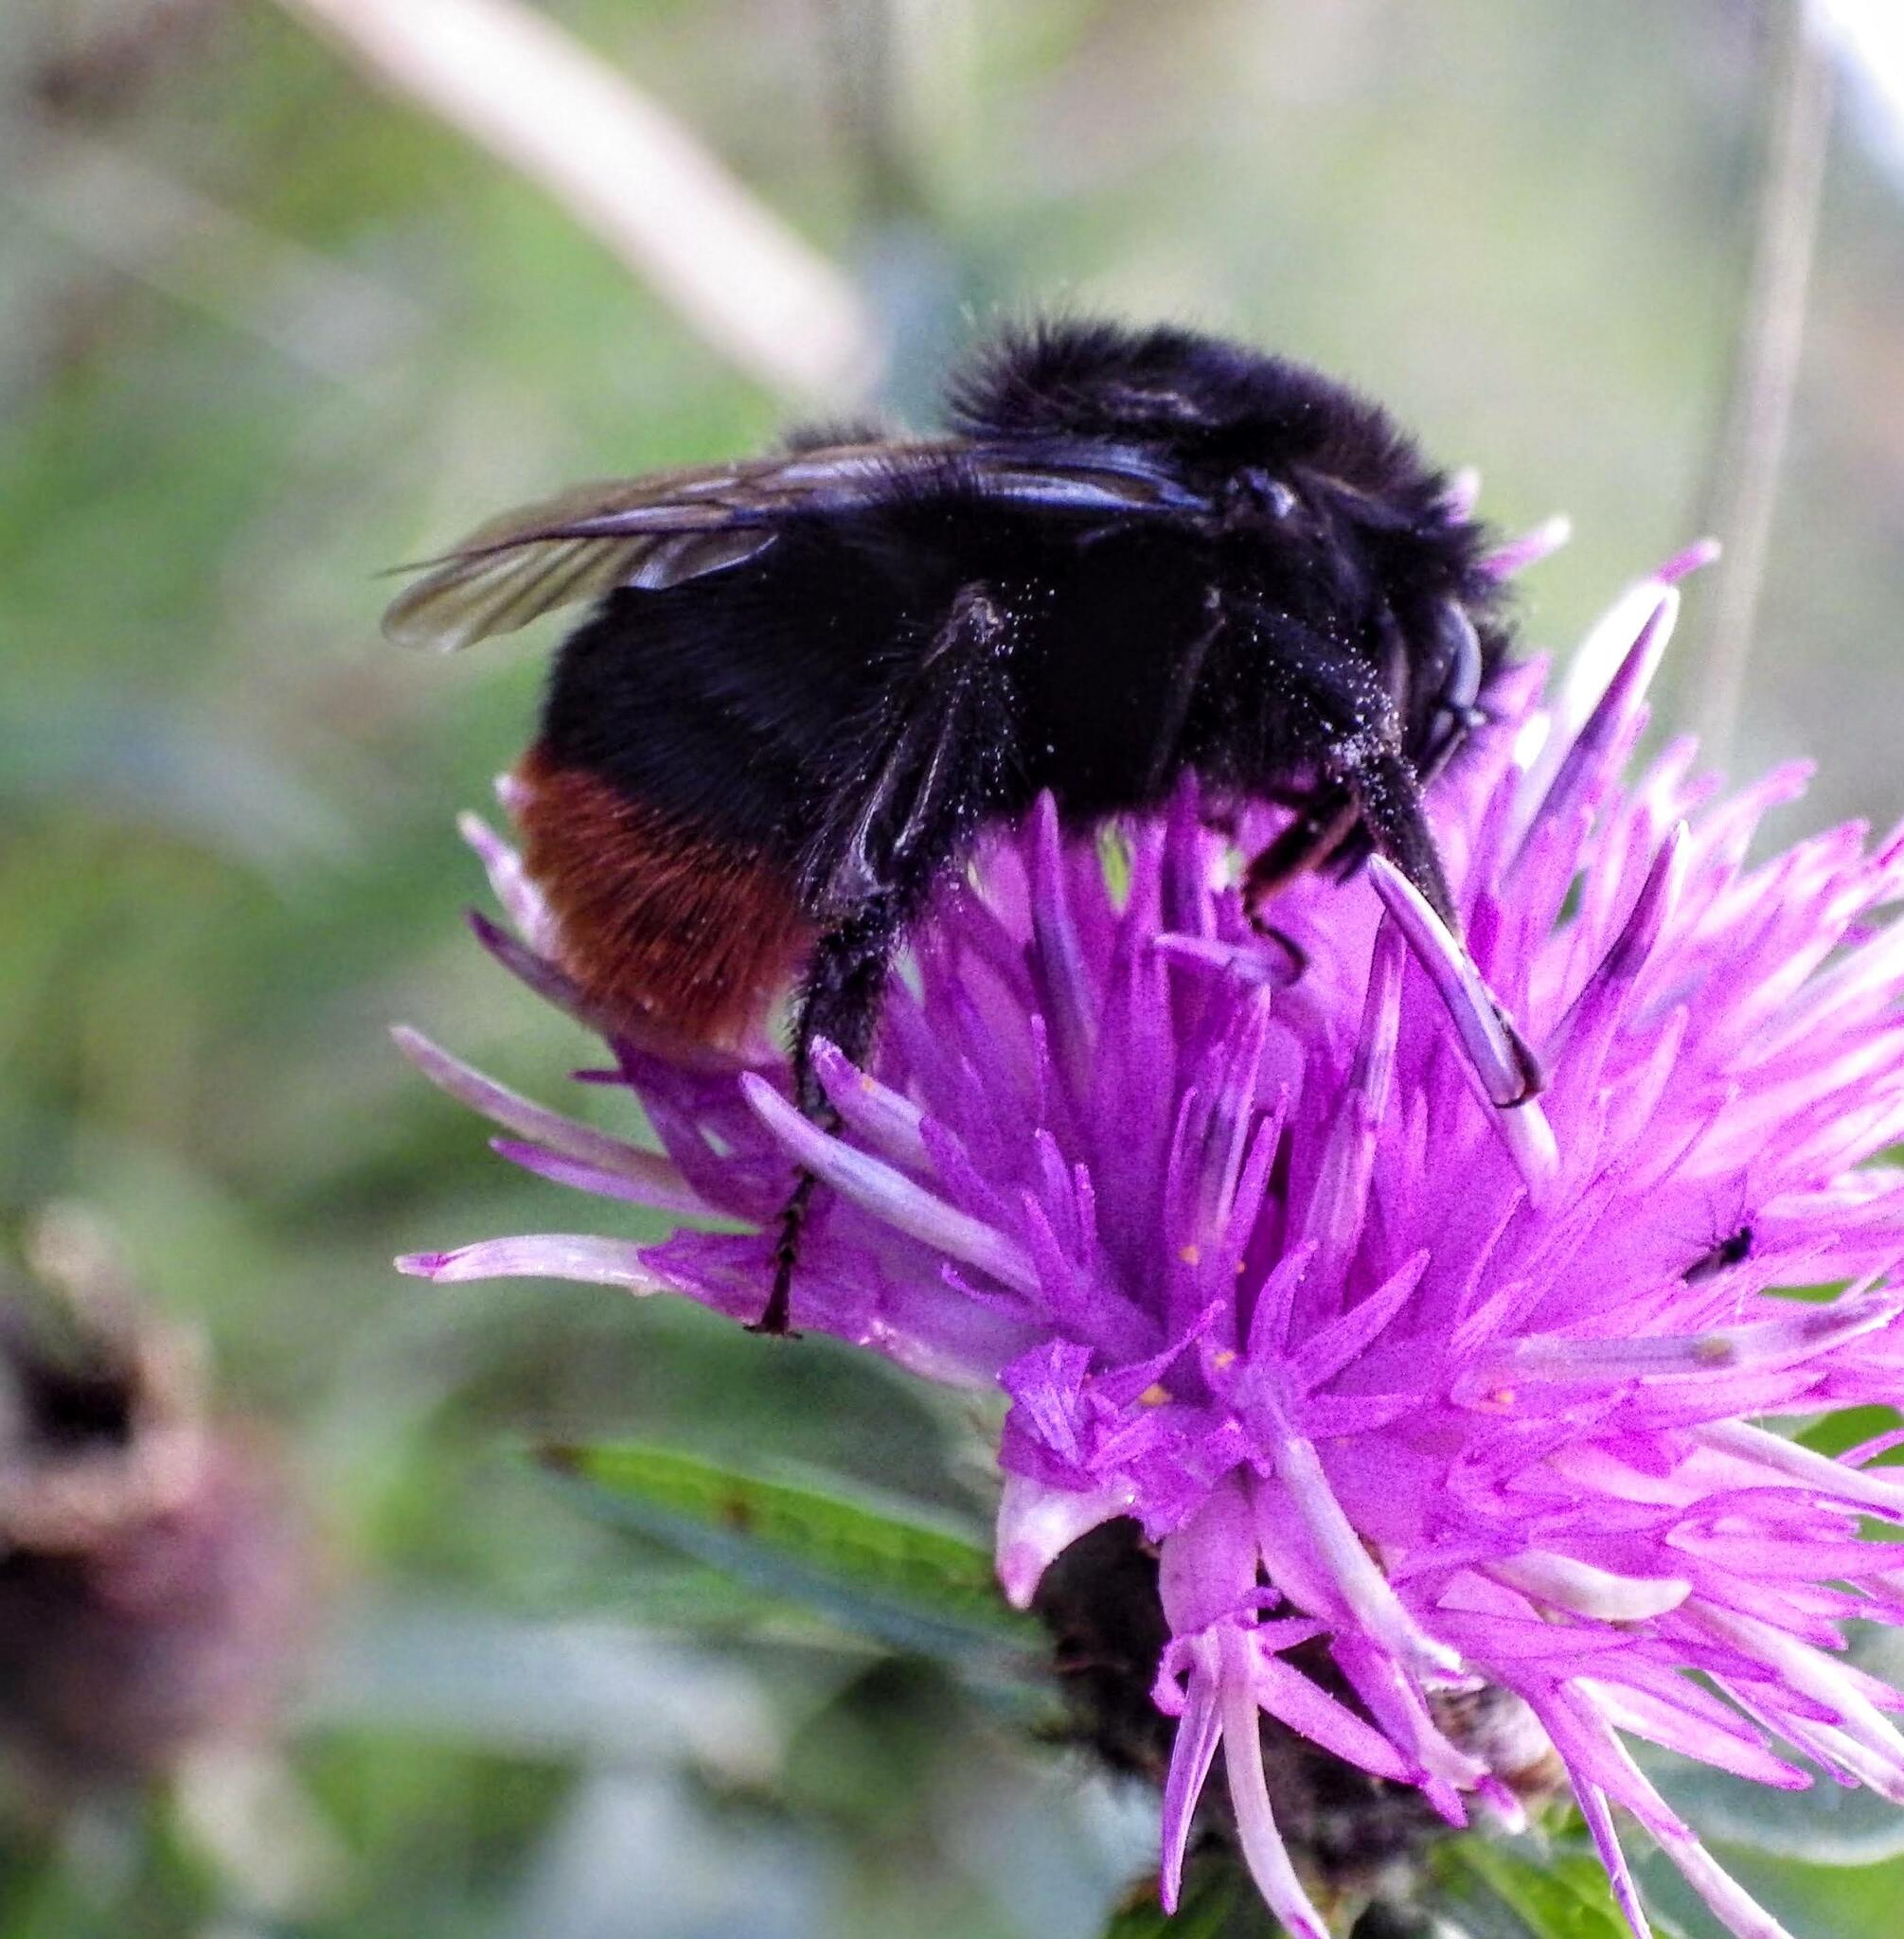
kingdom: Animalia
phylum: Arthropoda
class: Insecta
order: Hymenoptera
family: Apidae
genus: Bombus
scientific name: Bombus lapidarius
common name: Large red-tailed humble-bee
